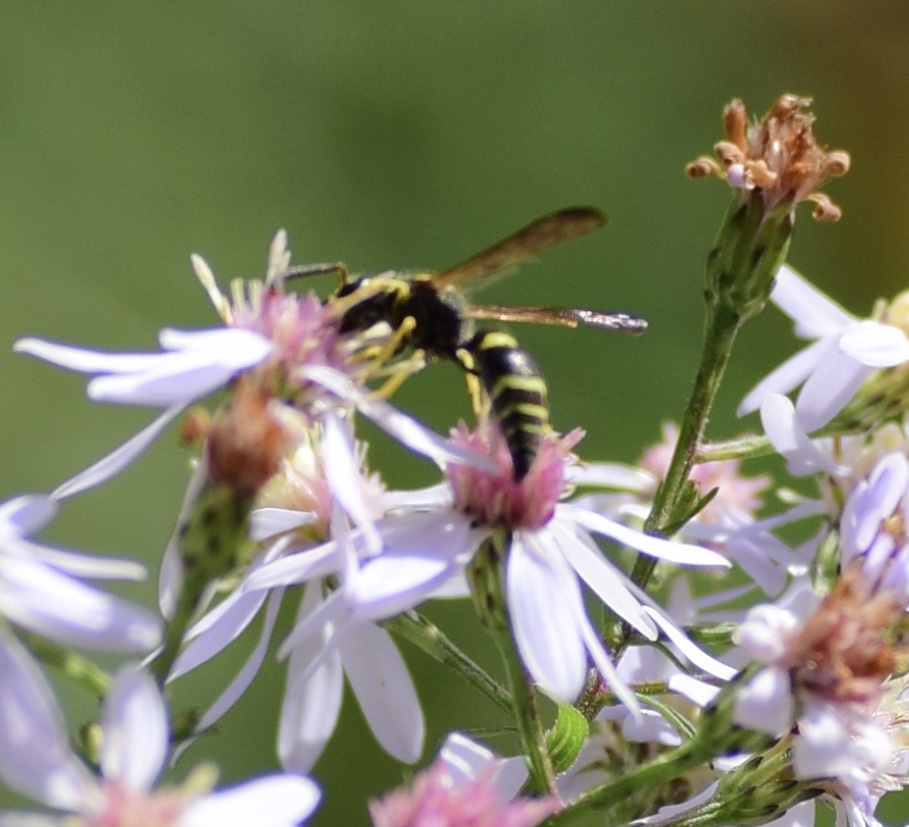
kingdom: Animalia
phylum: Arthropoda
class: Insecta
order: Hymenoptera
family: Vespidae
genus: Ancistrocerus
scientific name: Ancistrocerus
